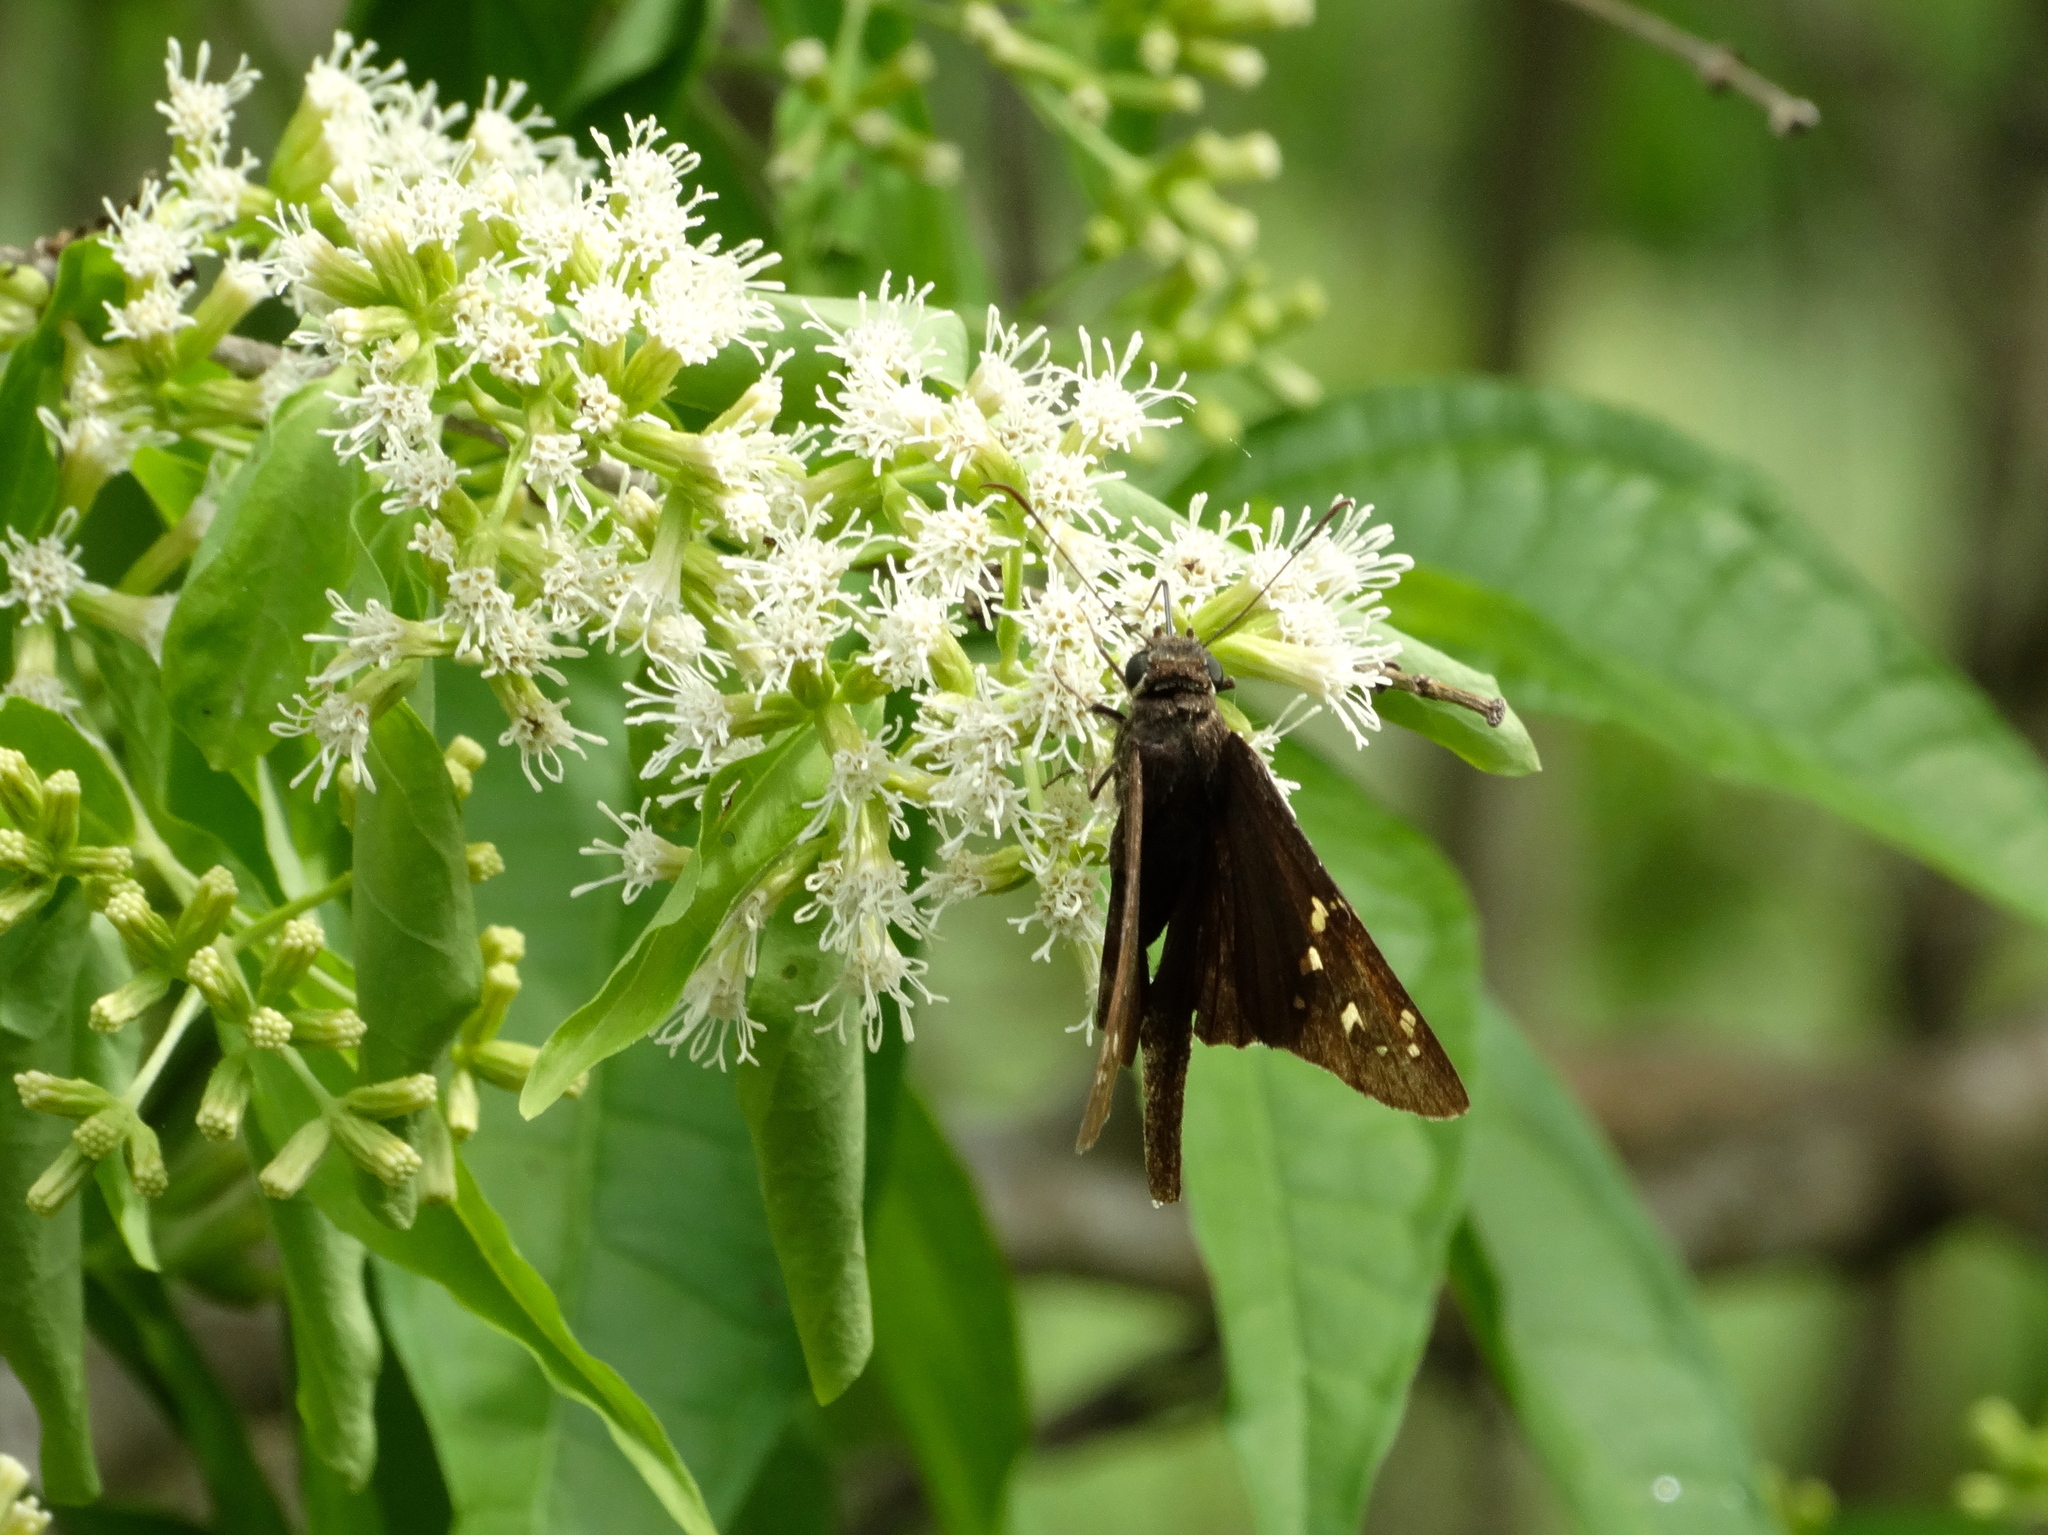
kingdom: Animalia
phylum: Arthropoda
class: Insecta
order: Lepidoptera
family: Hesperiidae
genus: Thorybes
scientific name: Thorybes
